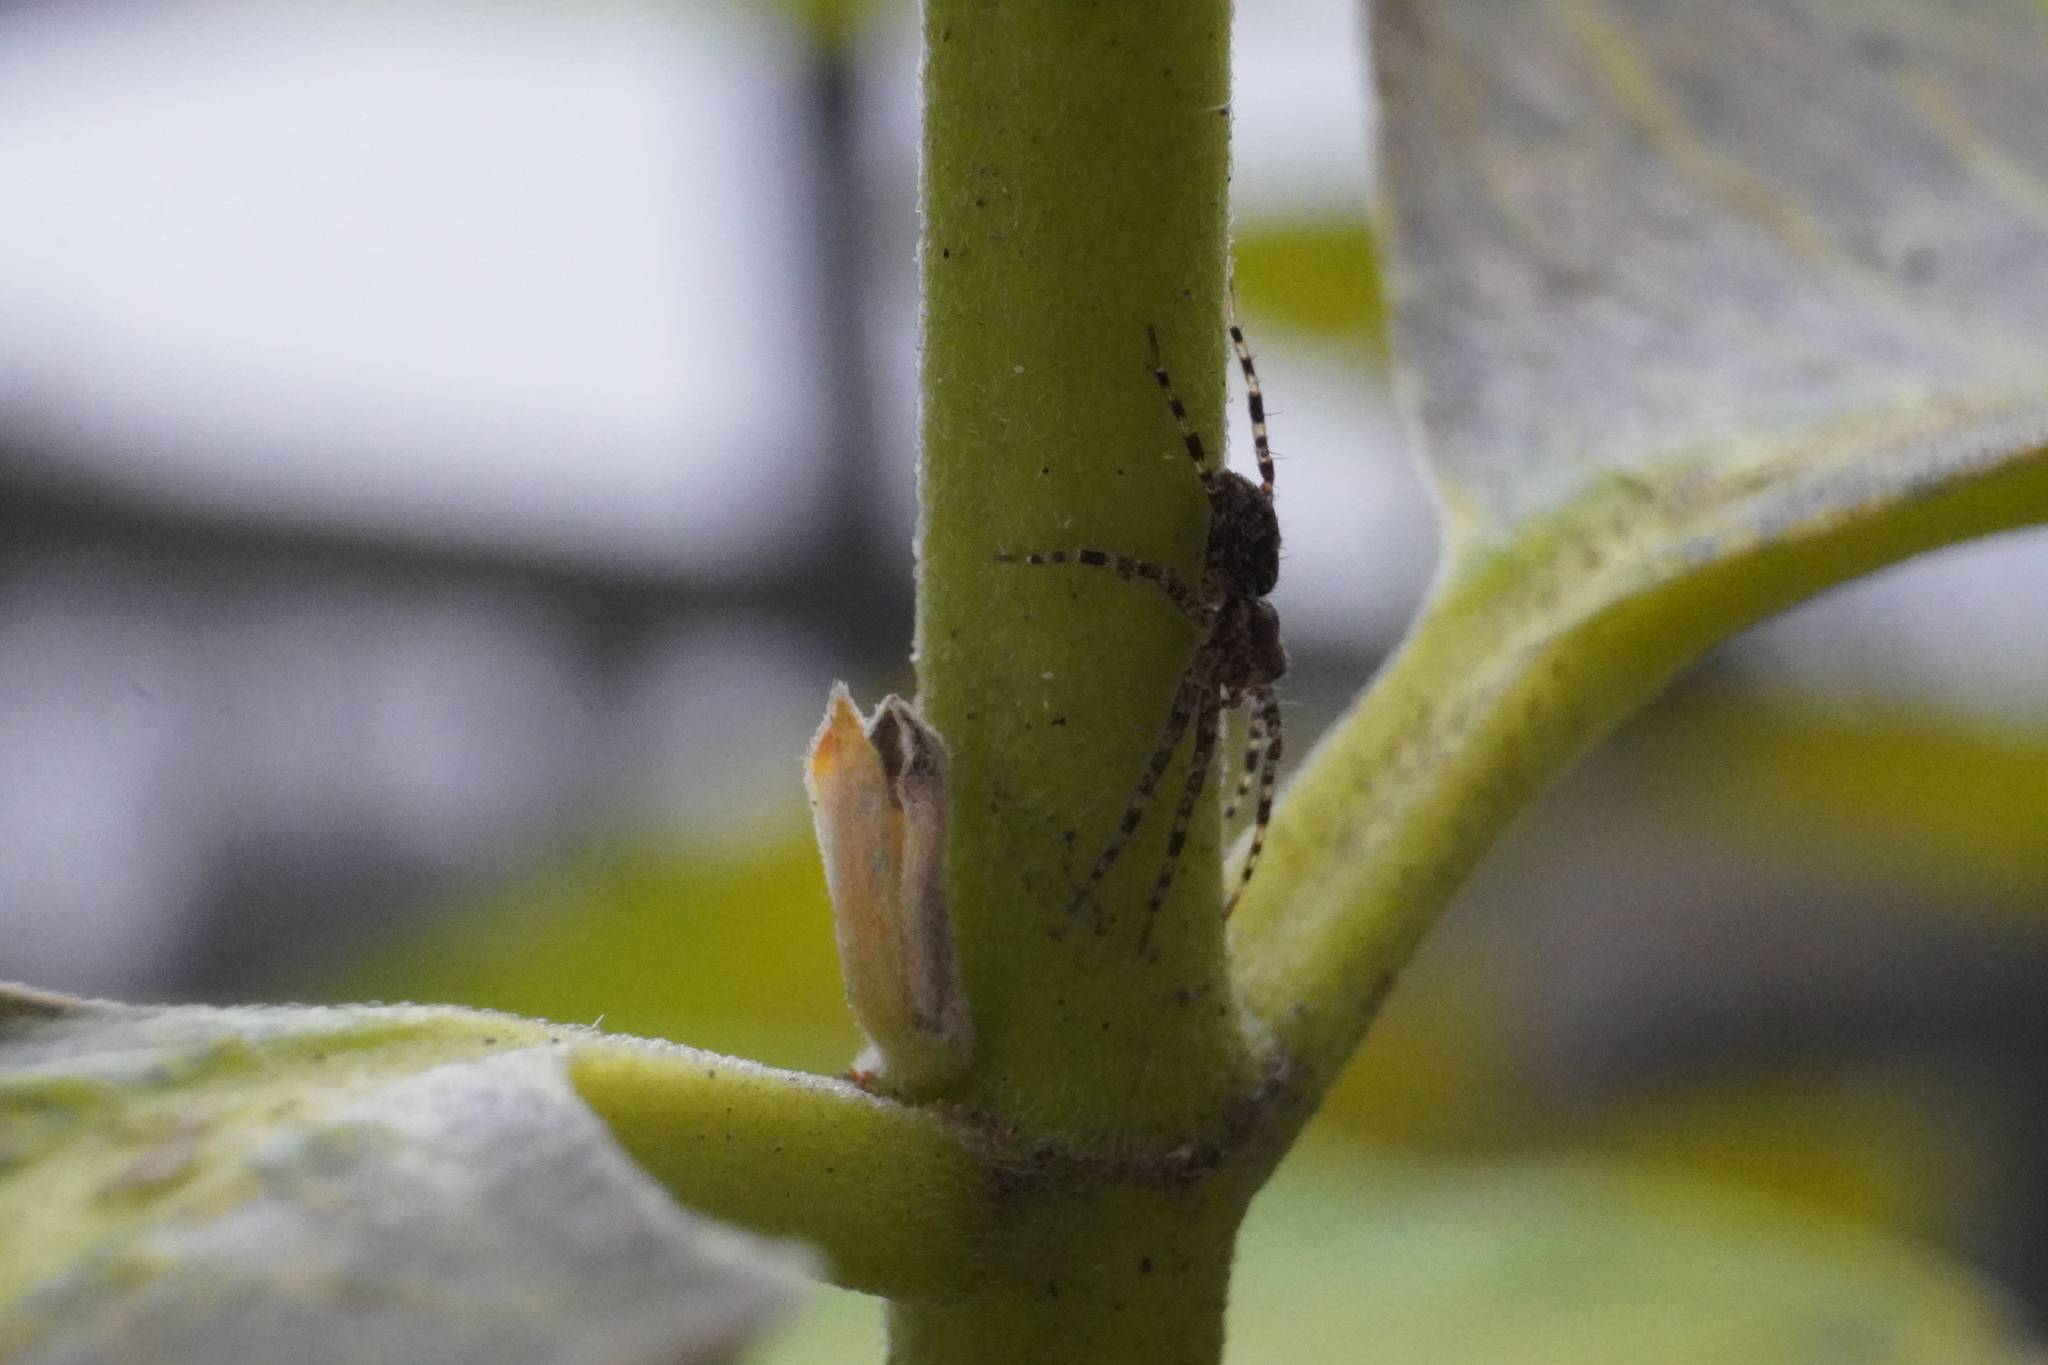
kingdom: Animalia
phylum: Arthropoda
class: Arachnida
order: Araneae
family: Pisauridae
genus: Dolomedes
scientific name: Dolomedes tenebrosus
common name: Dark fishing spider
